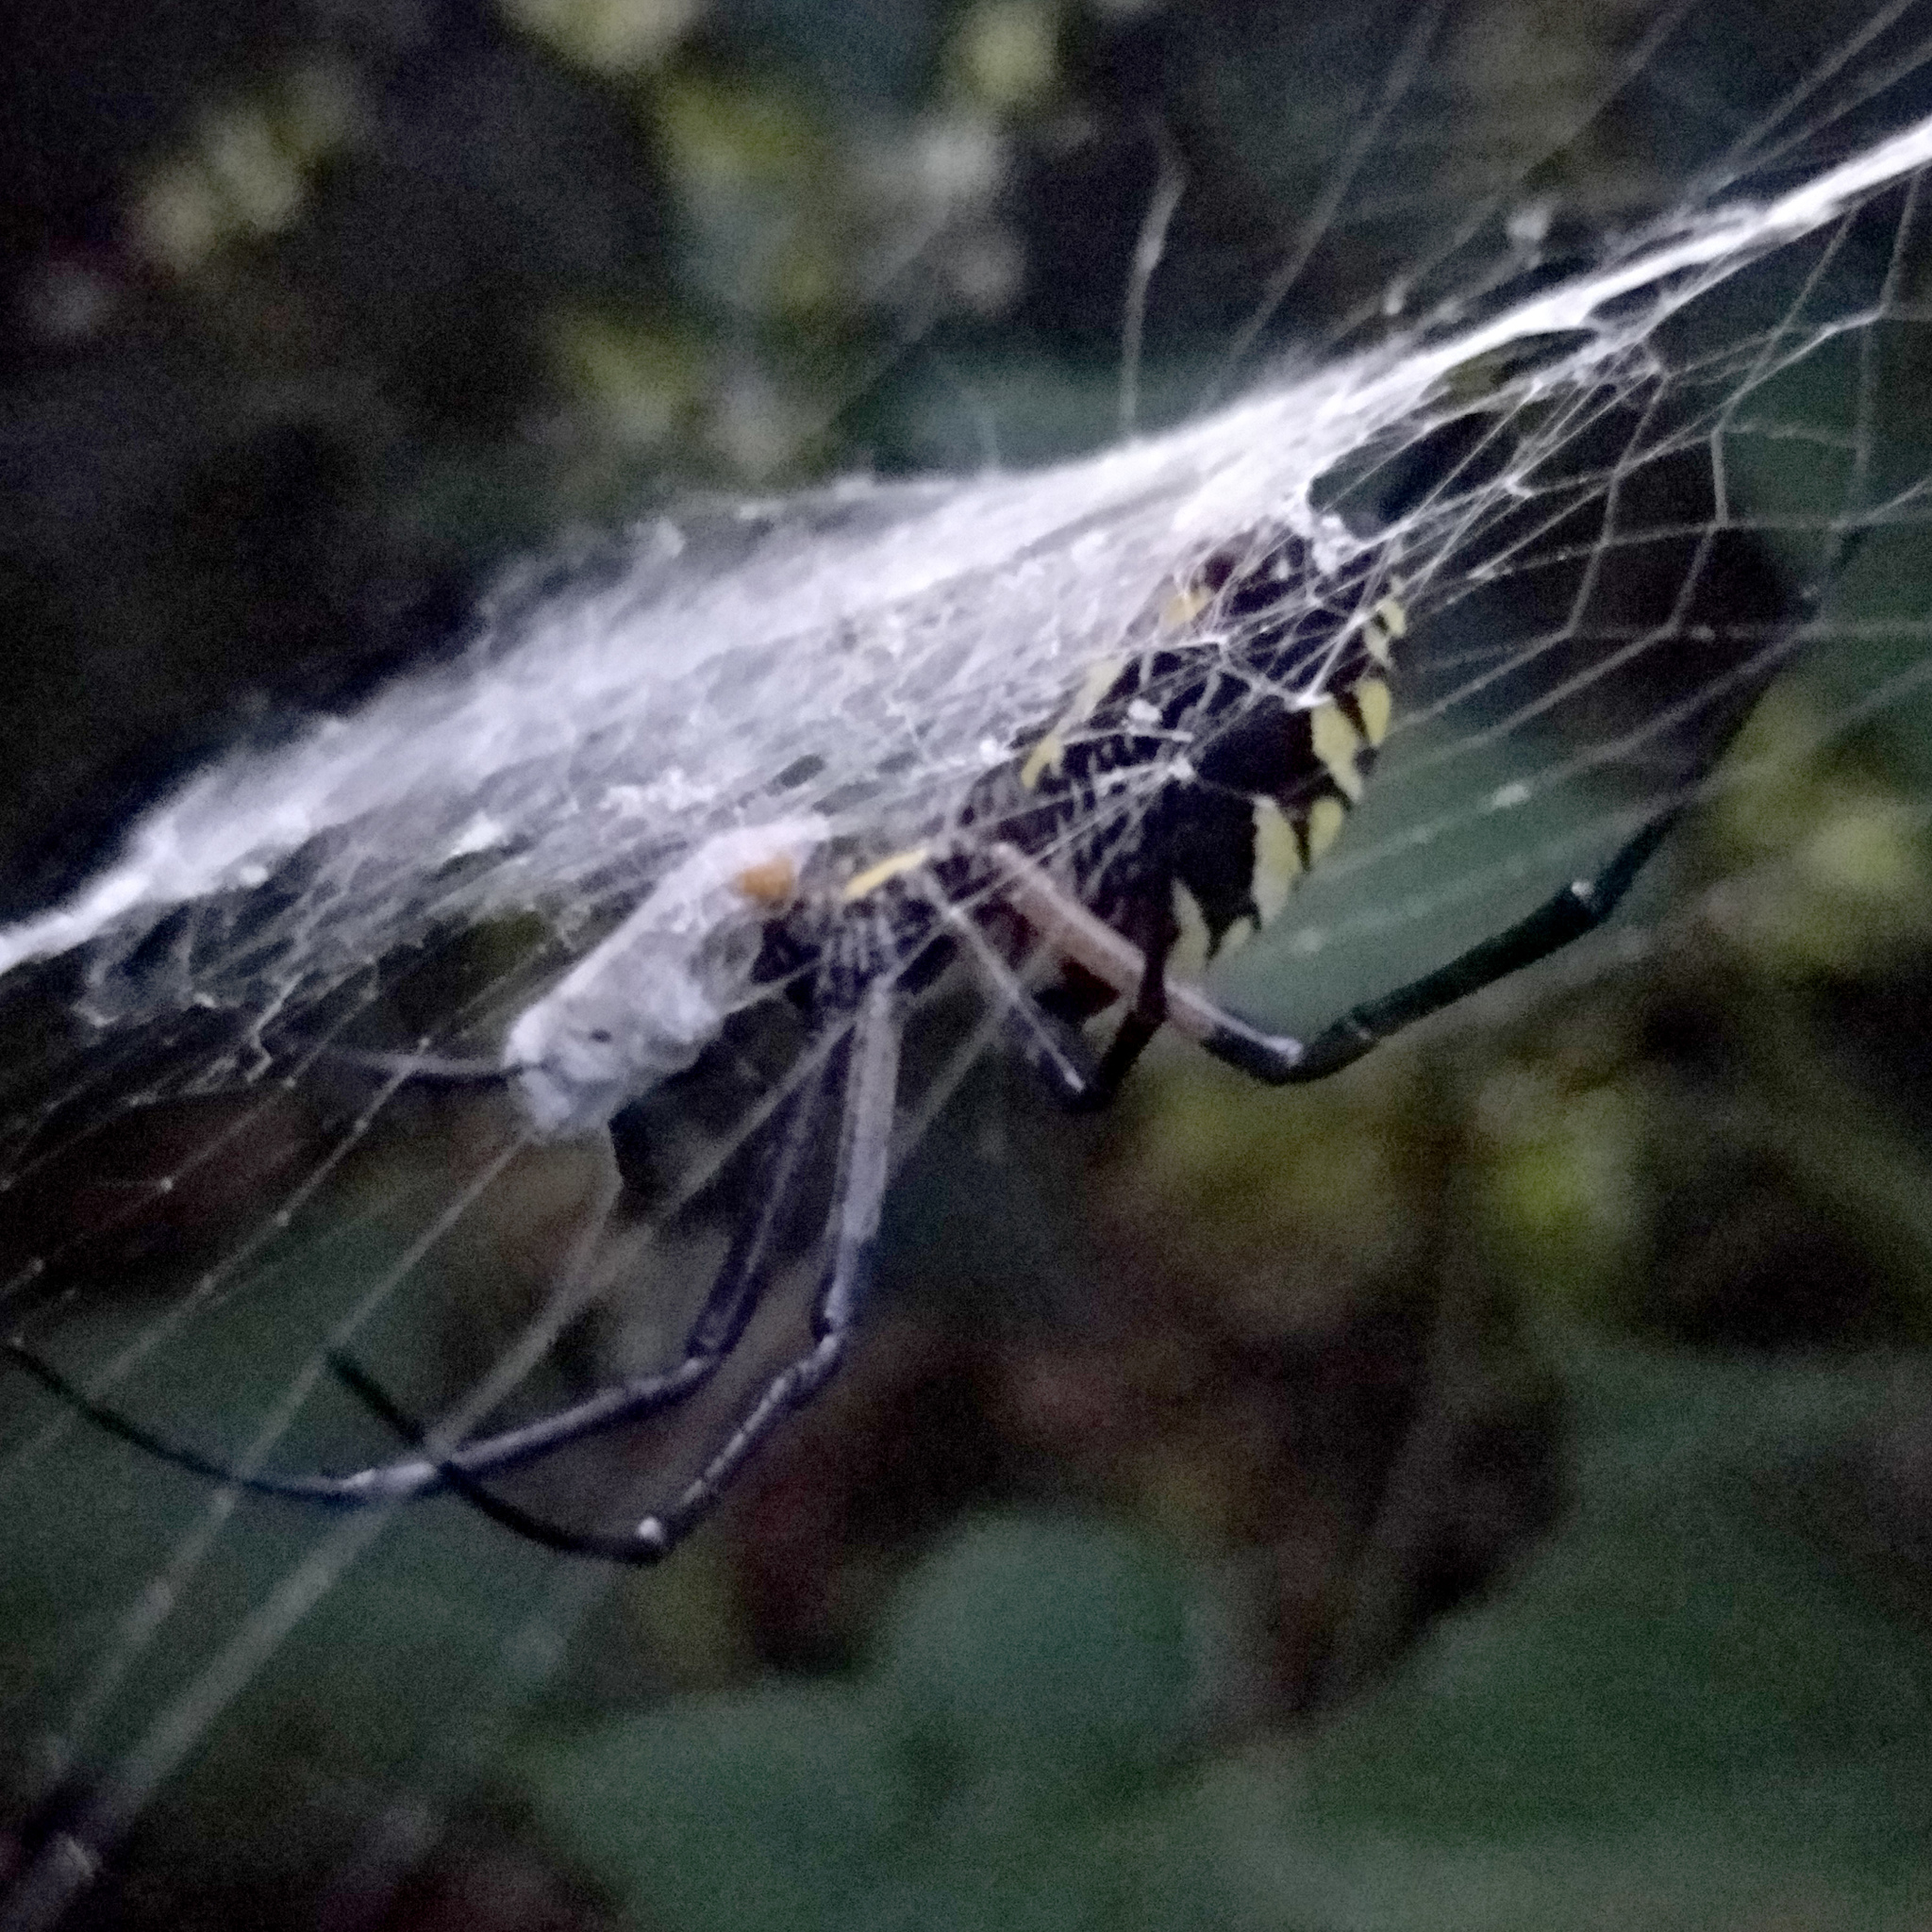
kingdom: Animalia
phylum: Arthropoda
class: Arachnida
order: Araneae
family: Araneidae
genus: Argiope
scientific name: Argiope aurantia
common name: Orb weavers
